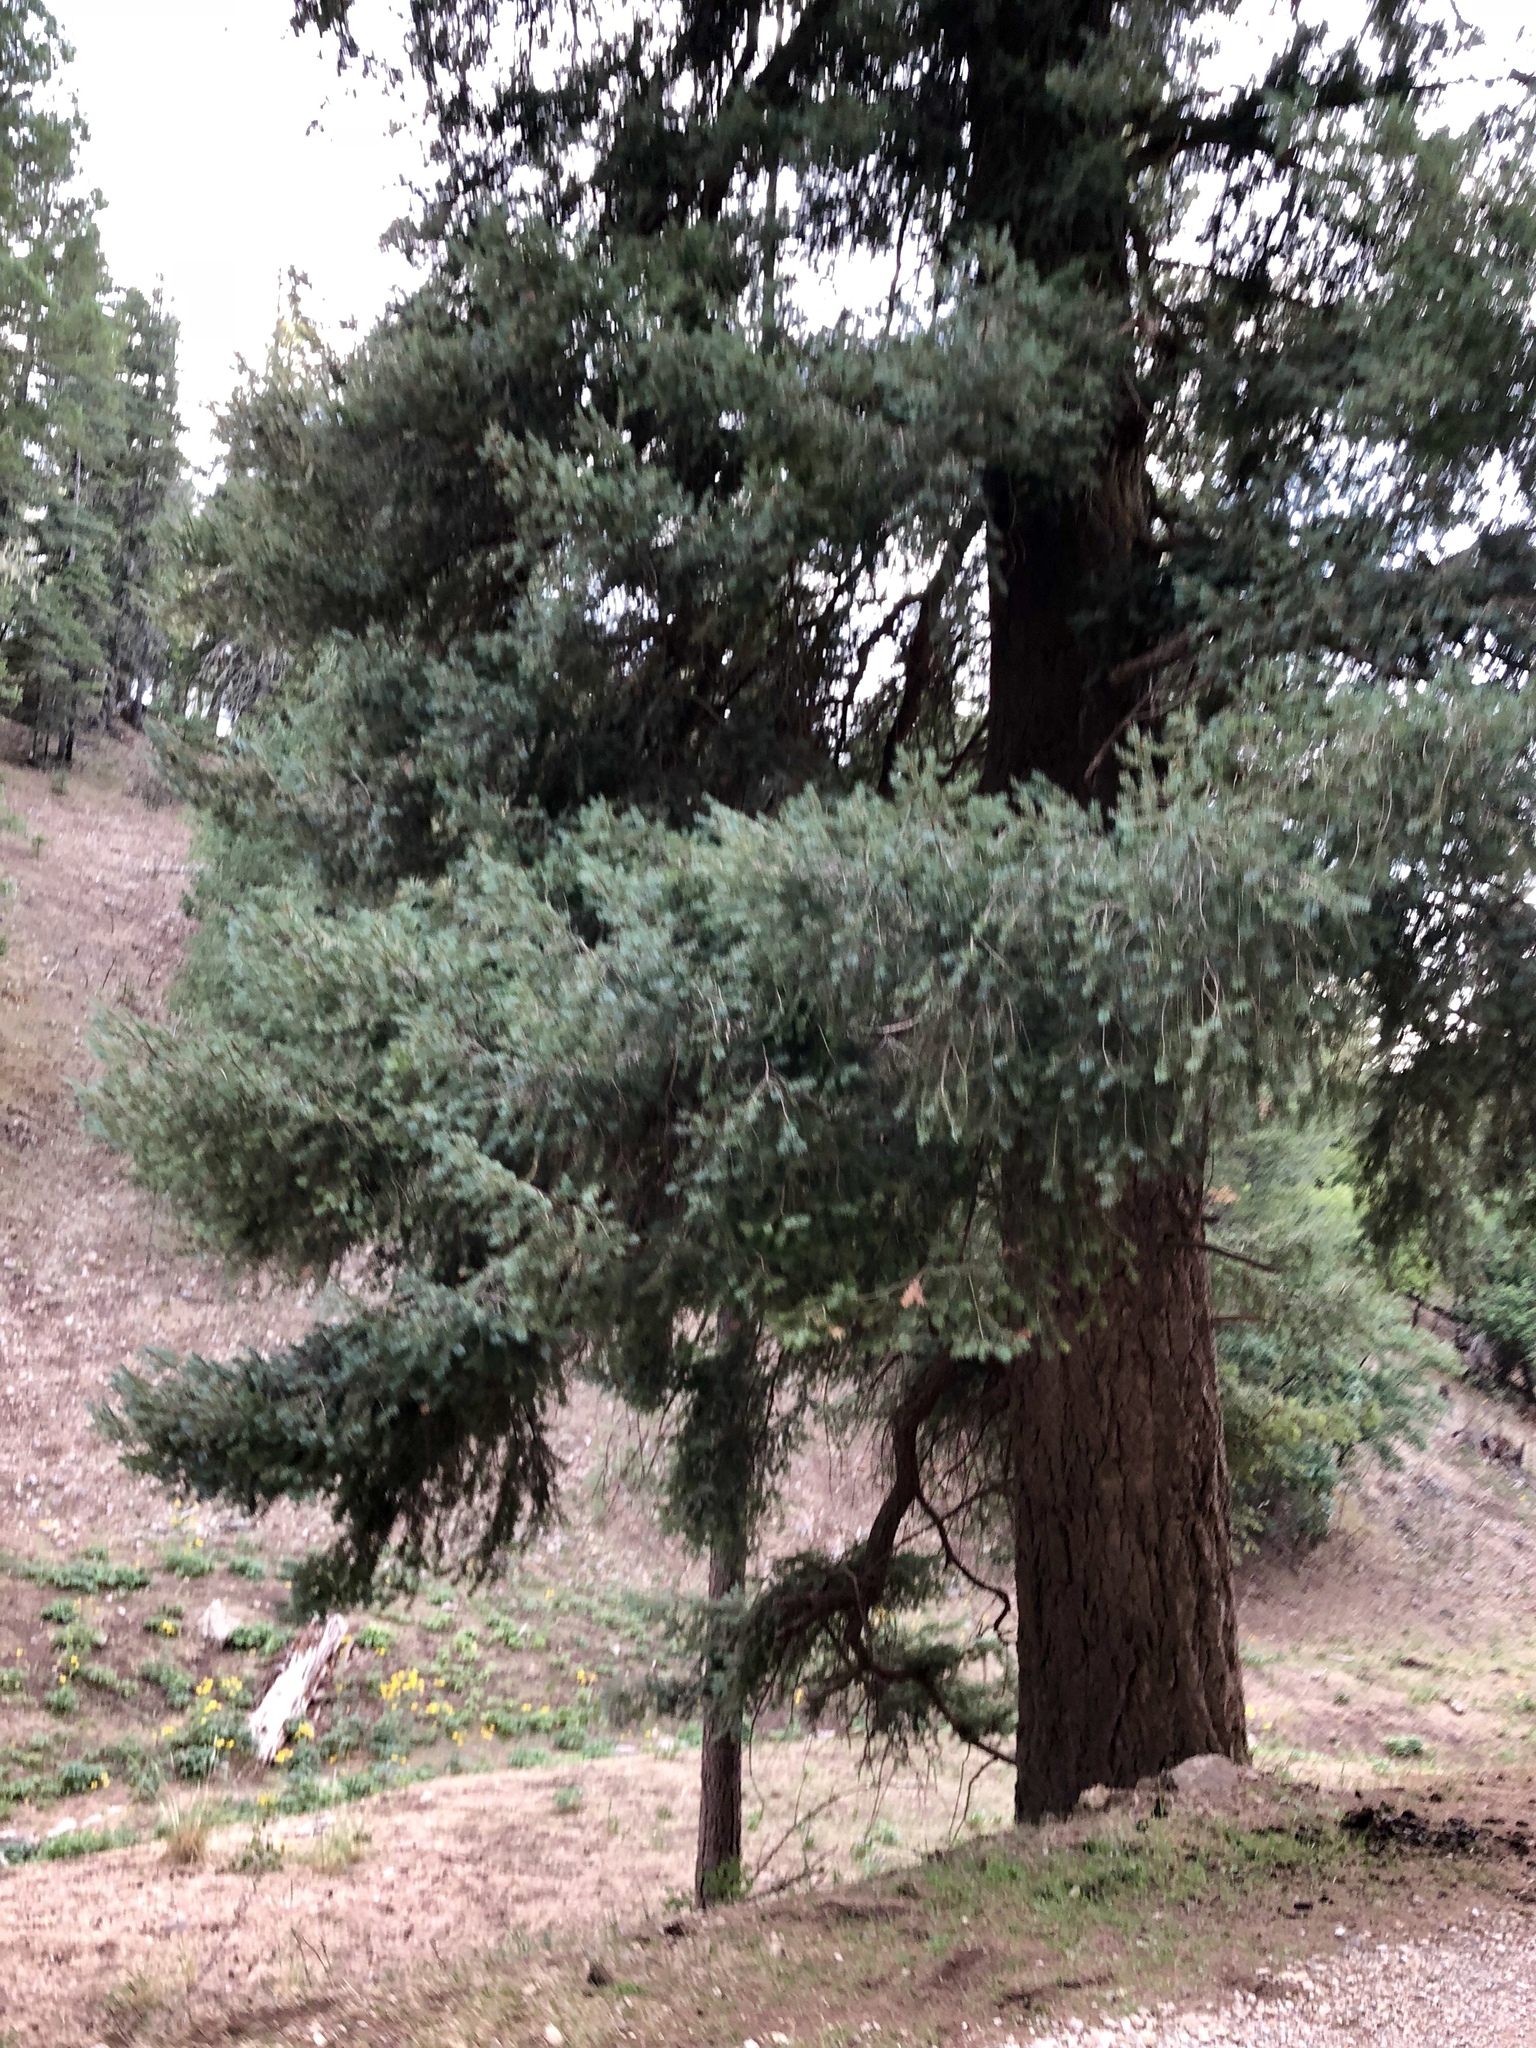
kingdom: Plantae
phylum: Tracheophyta
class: Pinopsida
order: Pinales
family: Pinaceae
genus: Pseudotsuga
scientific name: Pseudotsuga menziesii
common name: Douglas fir
